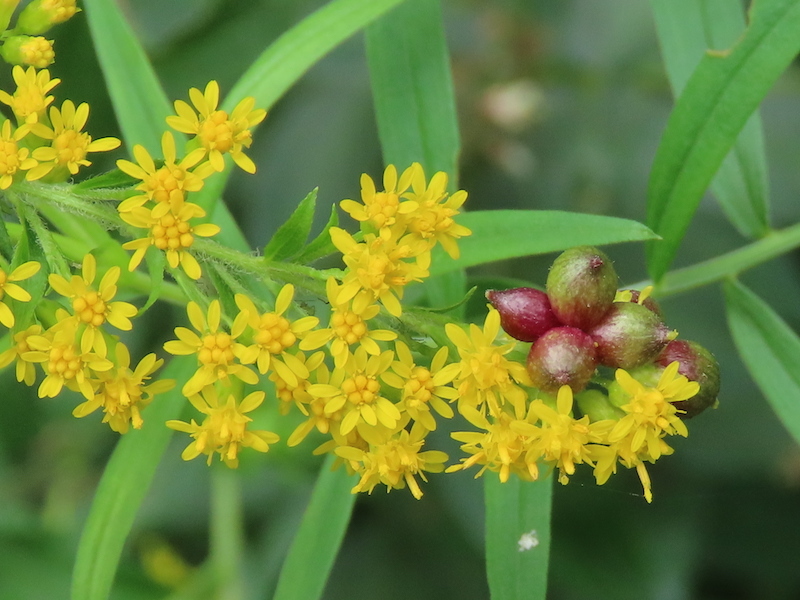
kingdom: Animalia
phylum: Arthropoda
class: Insecta
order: Diptera
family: Cecidomyiidae
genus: Schizomyia
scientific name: Schizomyia racemicola
